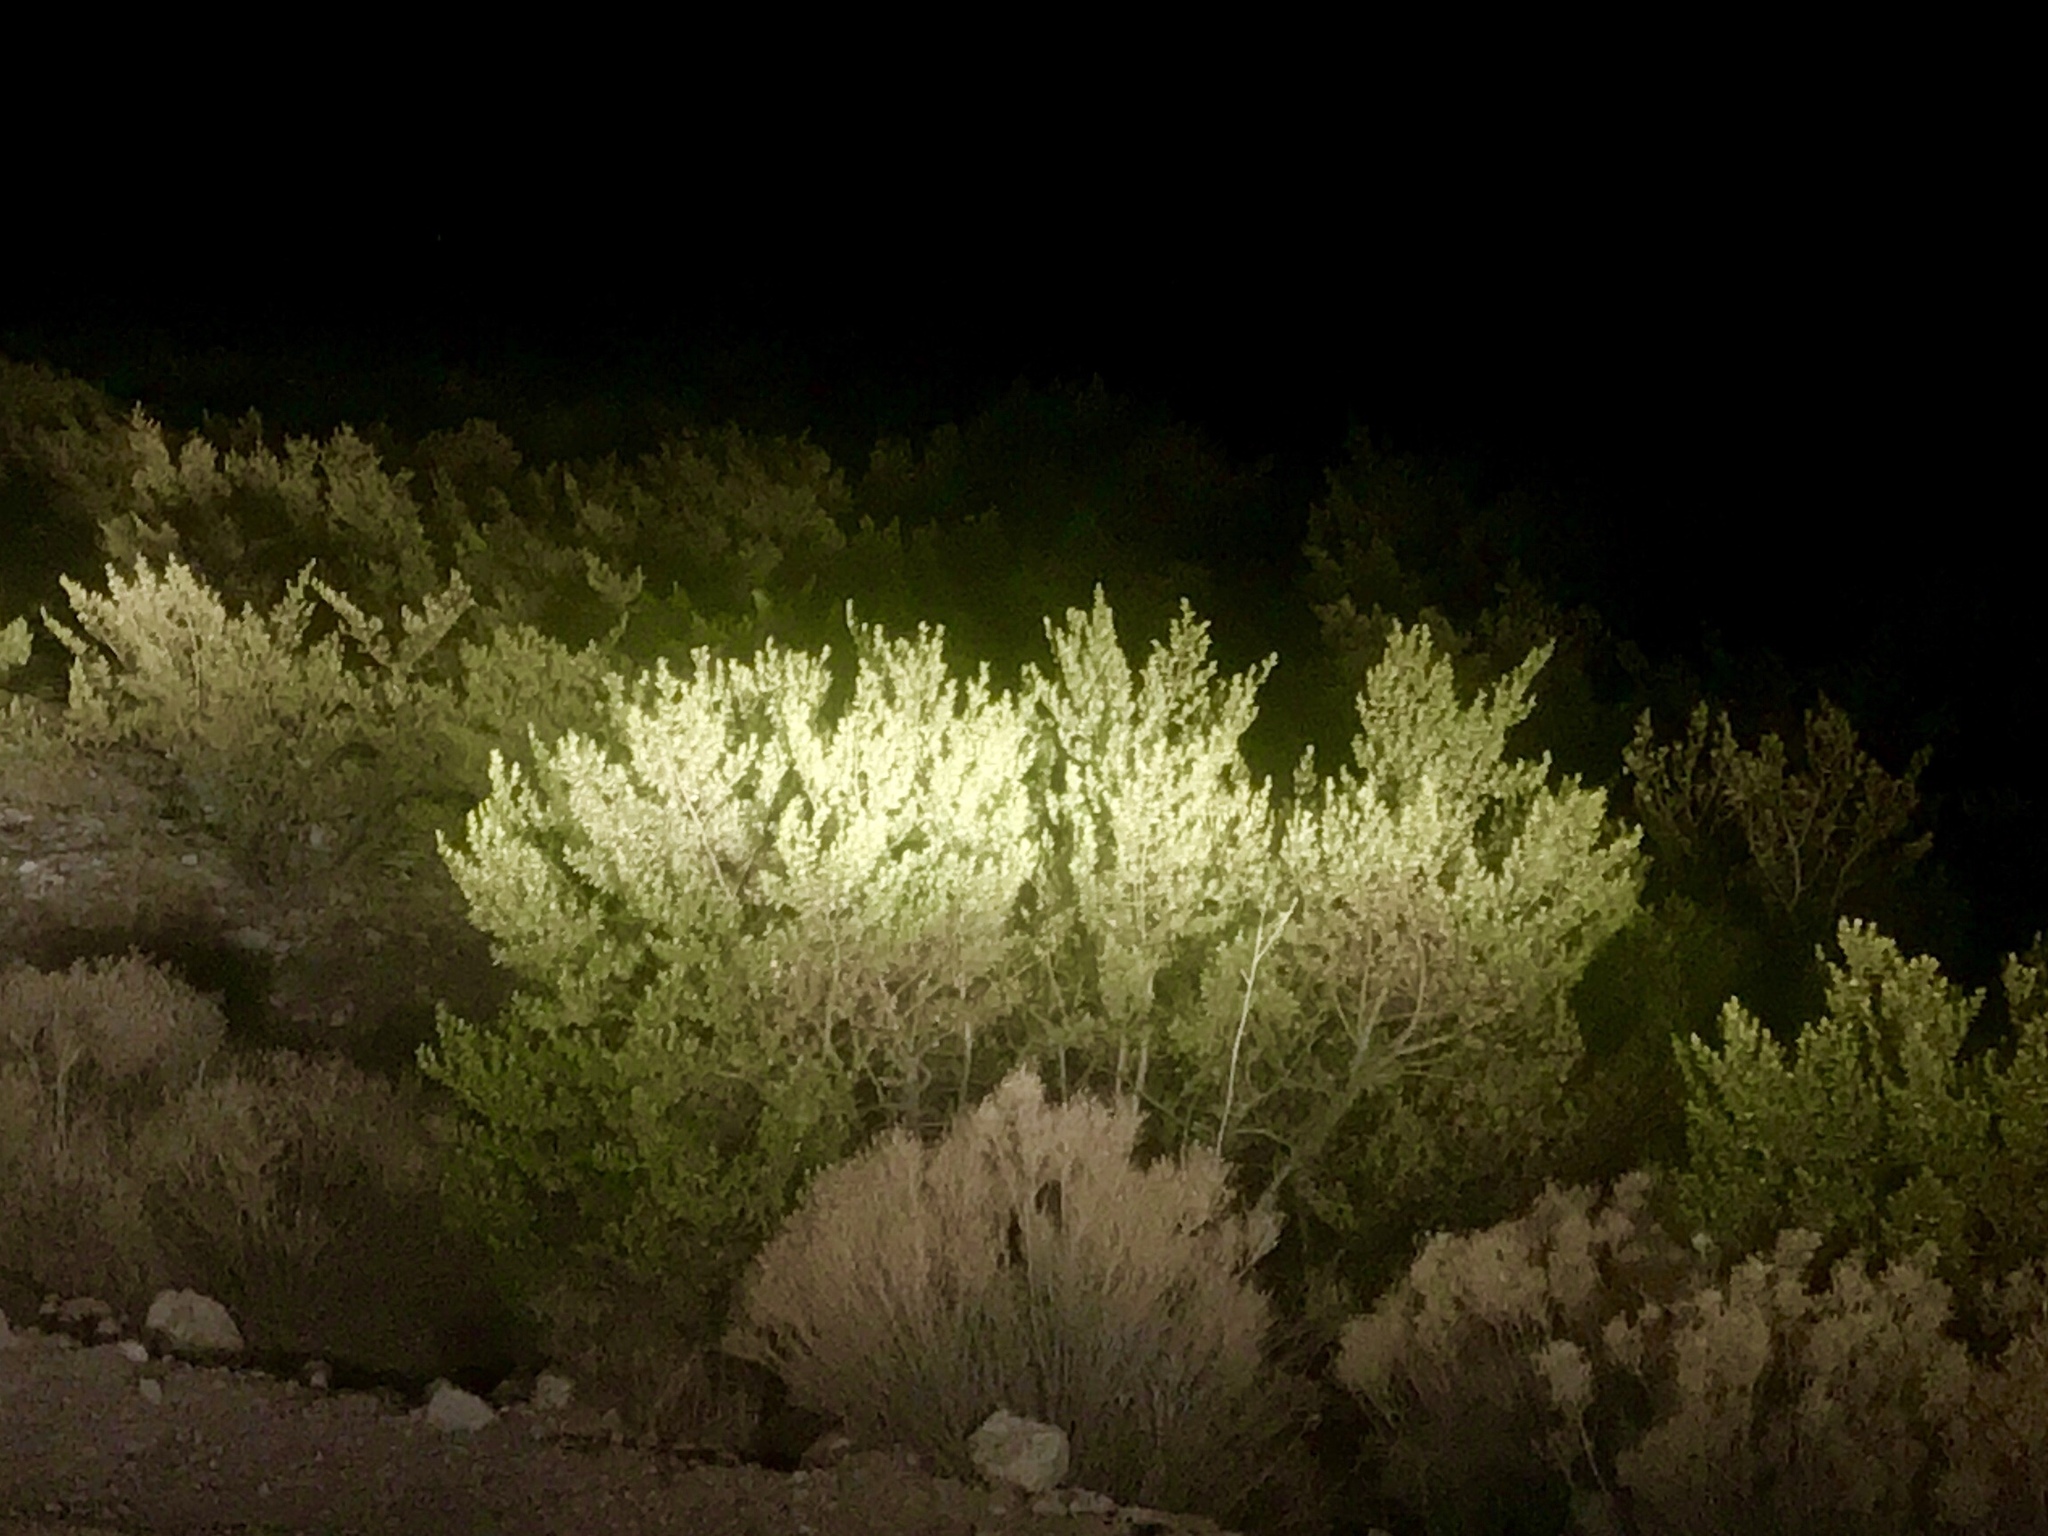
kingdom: Plantae
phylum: Tracheophyta
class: Magnoliopsida
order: Zygophyllales
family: Zygophyllaceae
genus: Larrea
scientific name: Larrea tridentata
